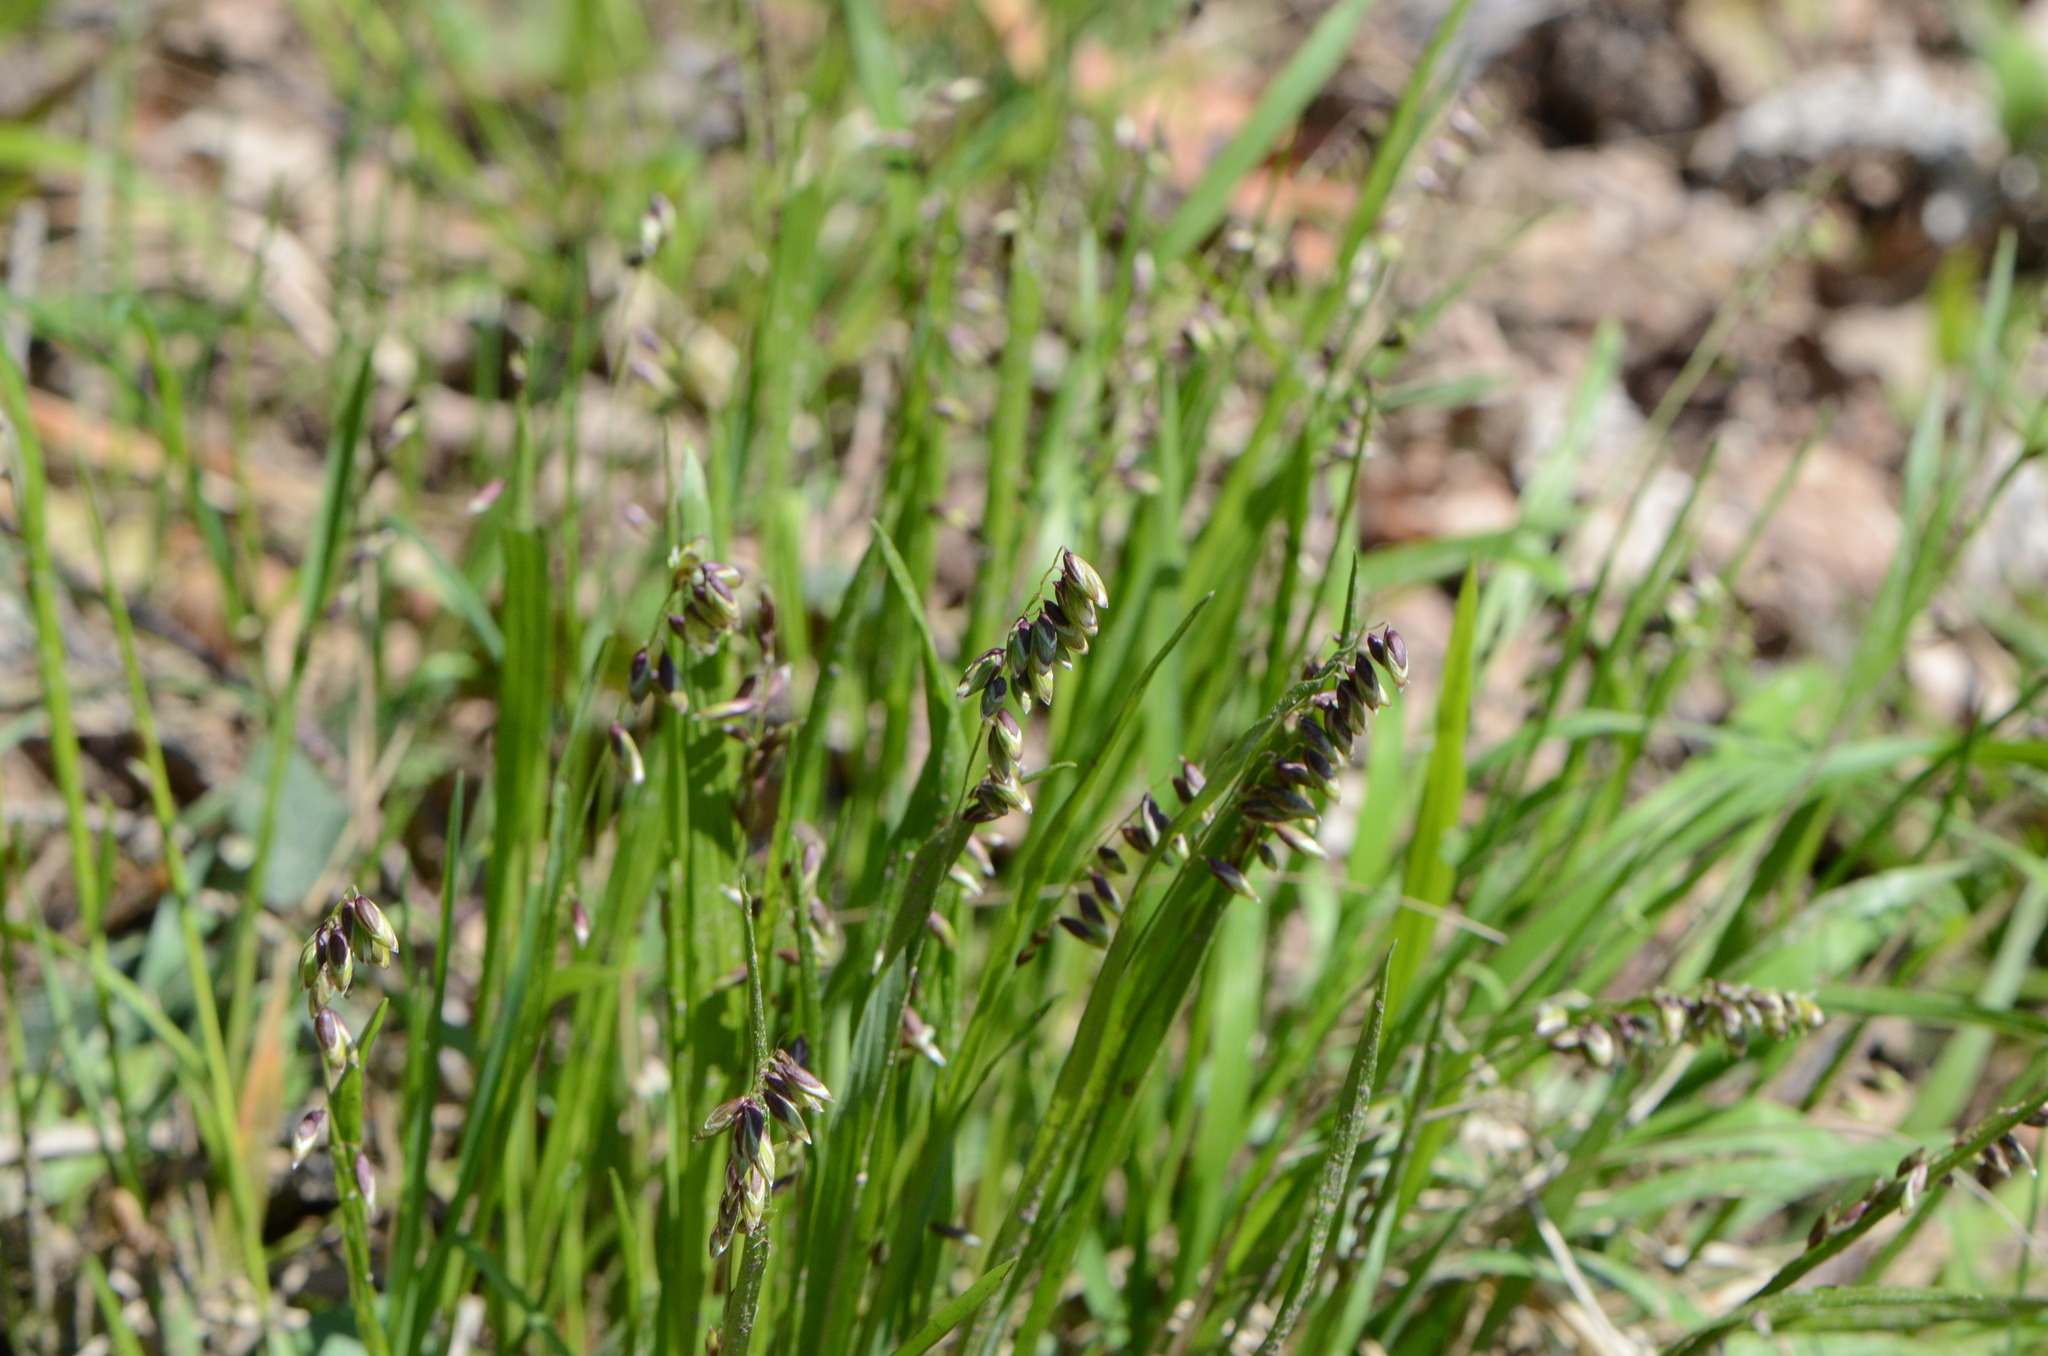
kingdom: Plantae
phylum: Tracheophyta
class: Liliopsida
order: Poales
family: Poaceae
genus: Melica
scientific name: Melica nutans
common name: Mountain melick
